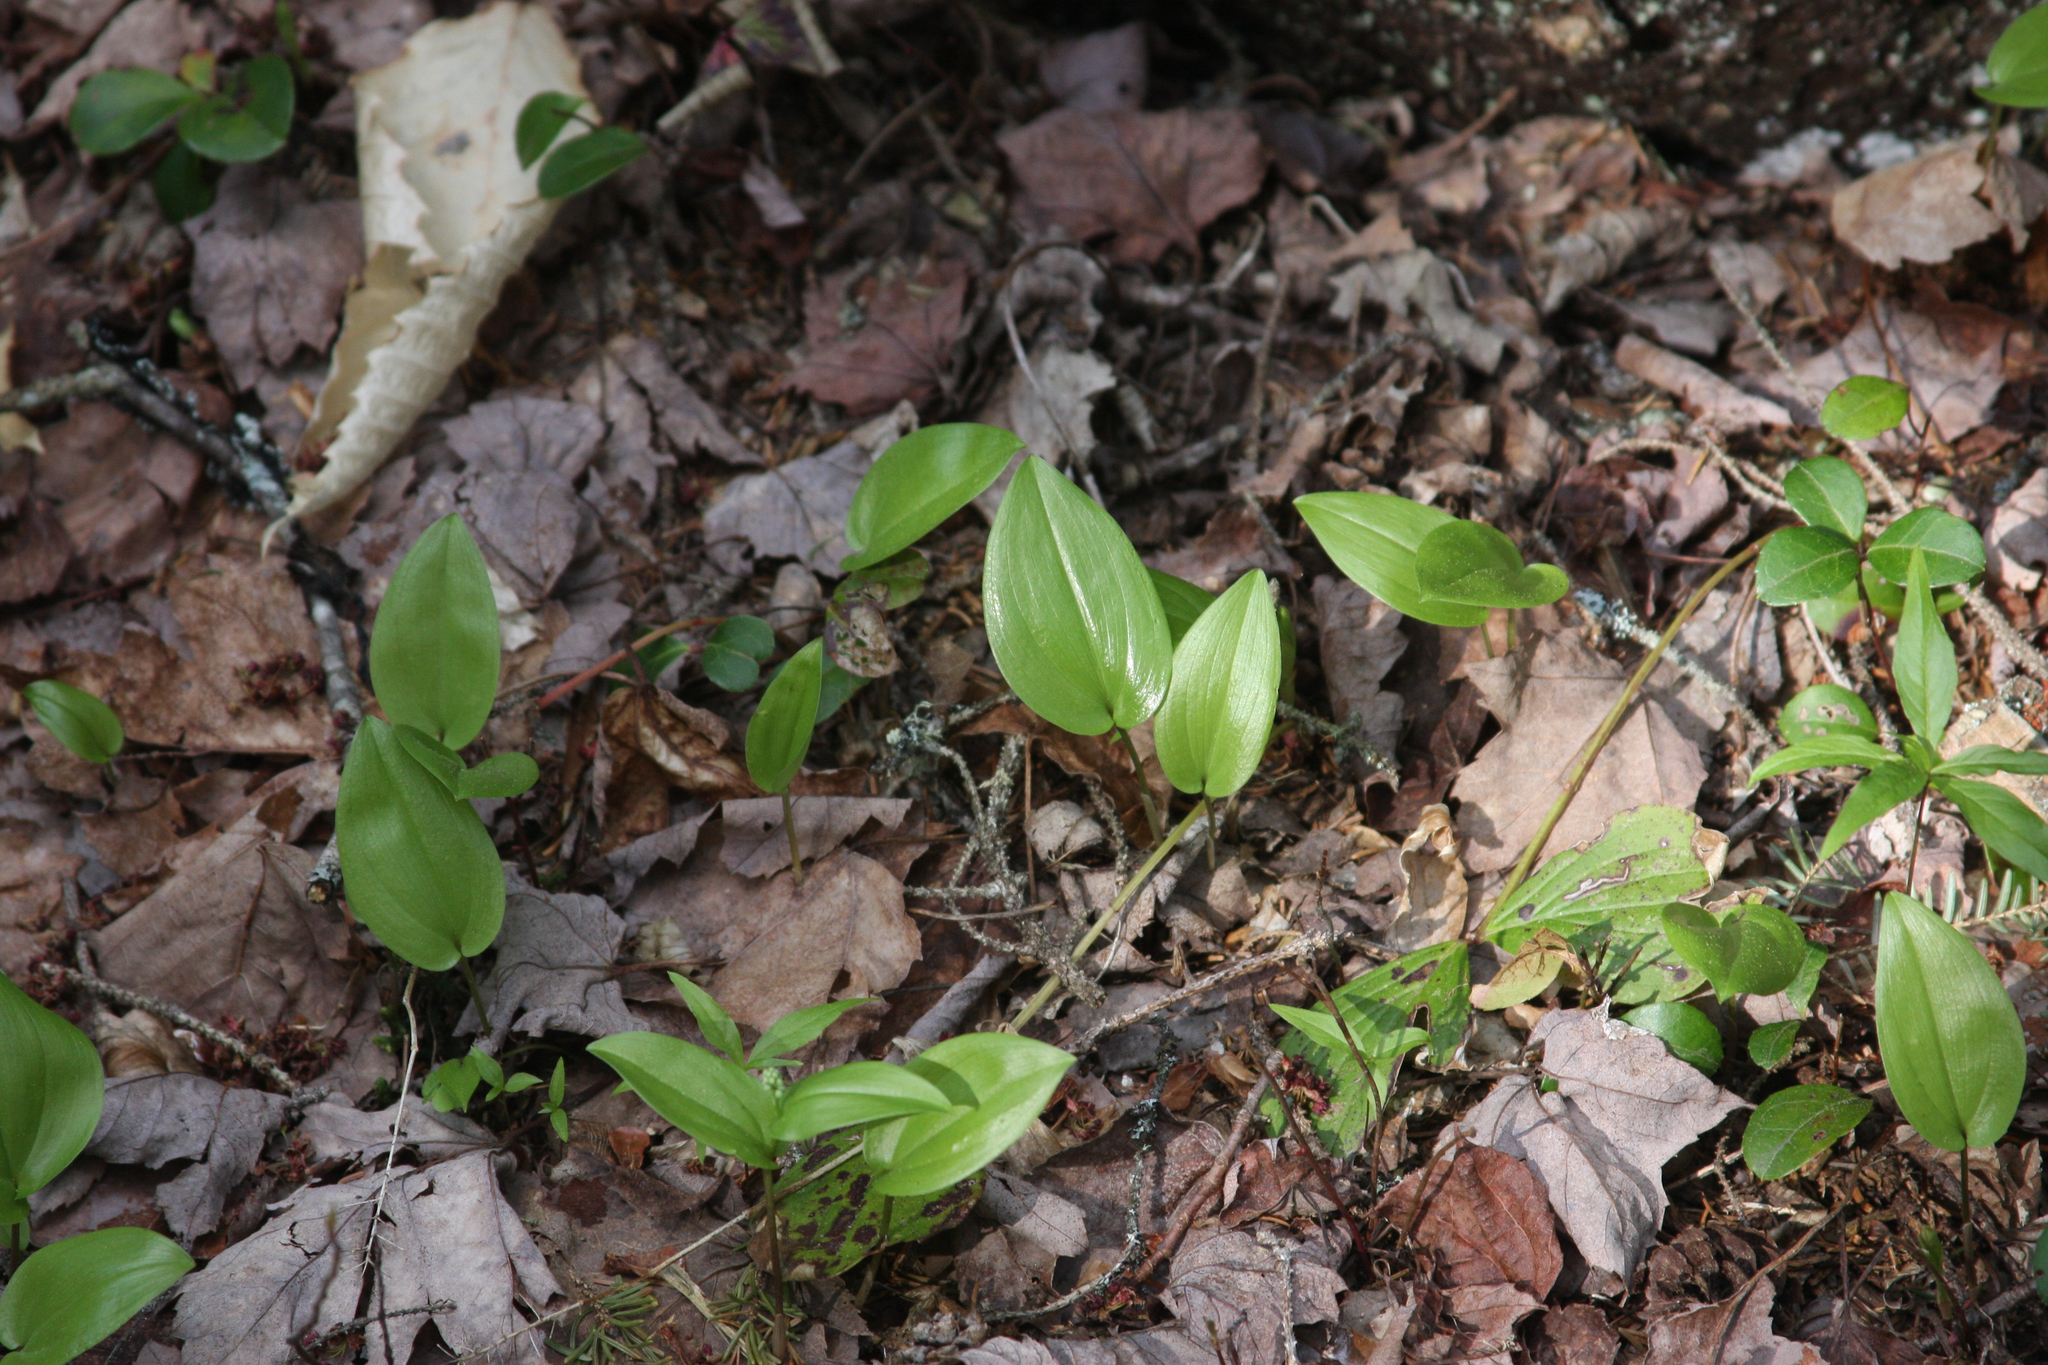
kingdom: Plantae
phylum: Tracheophyta
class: Liliopsida
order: Asparagales
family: Asparagaceae
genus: Maianthemum
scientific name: Maianthemum canadense
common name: False lily-of-the-valley
